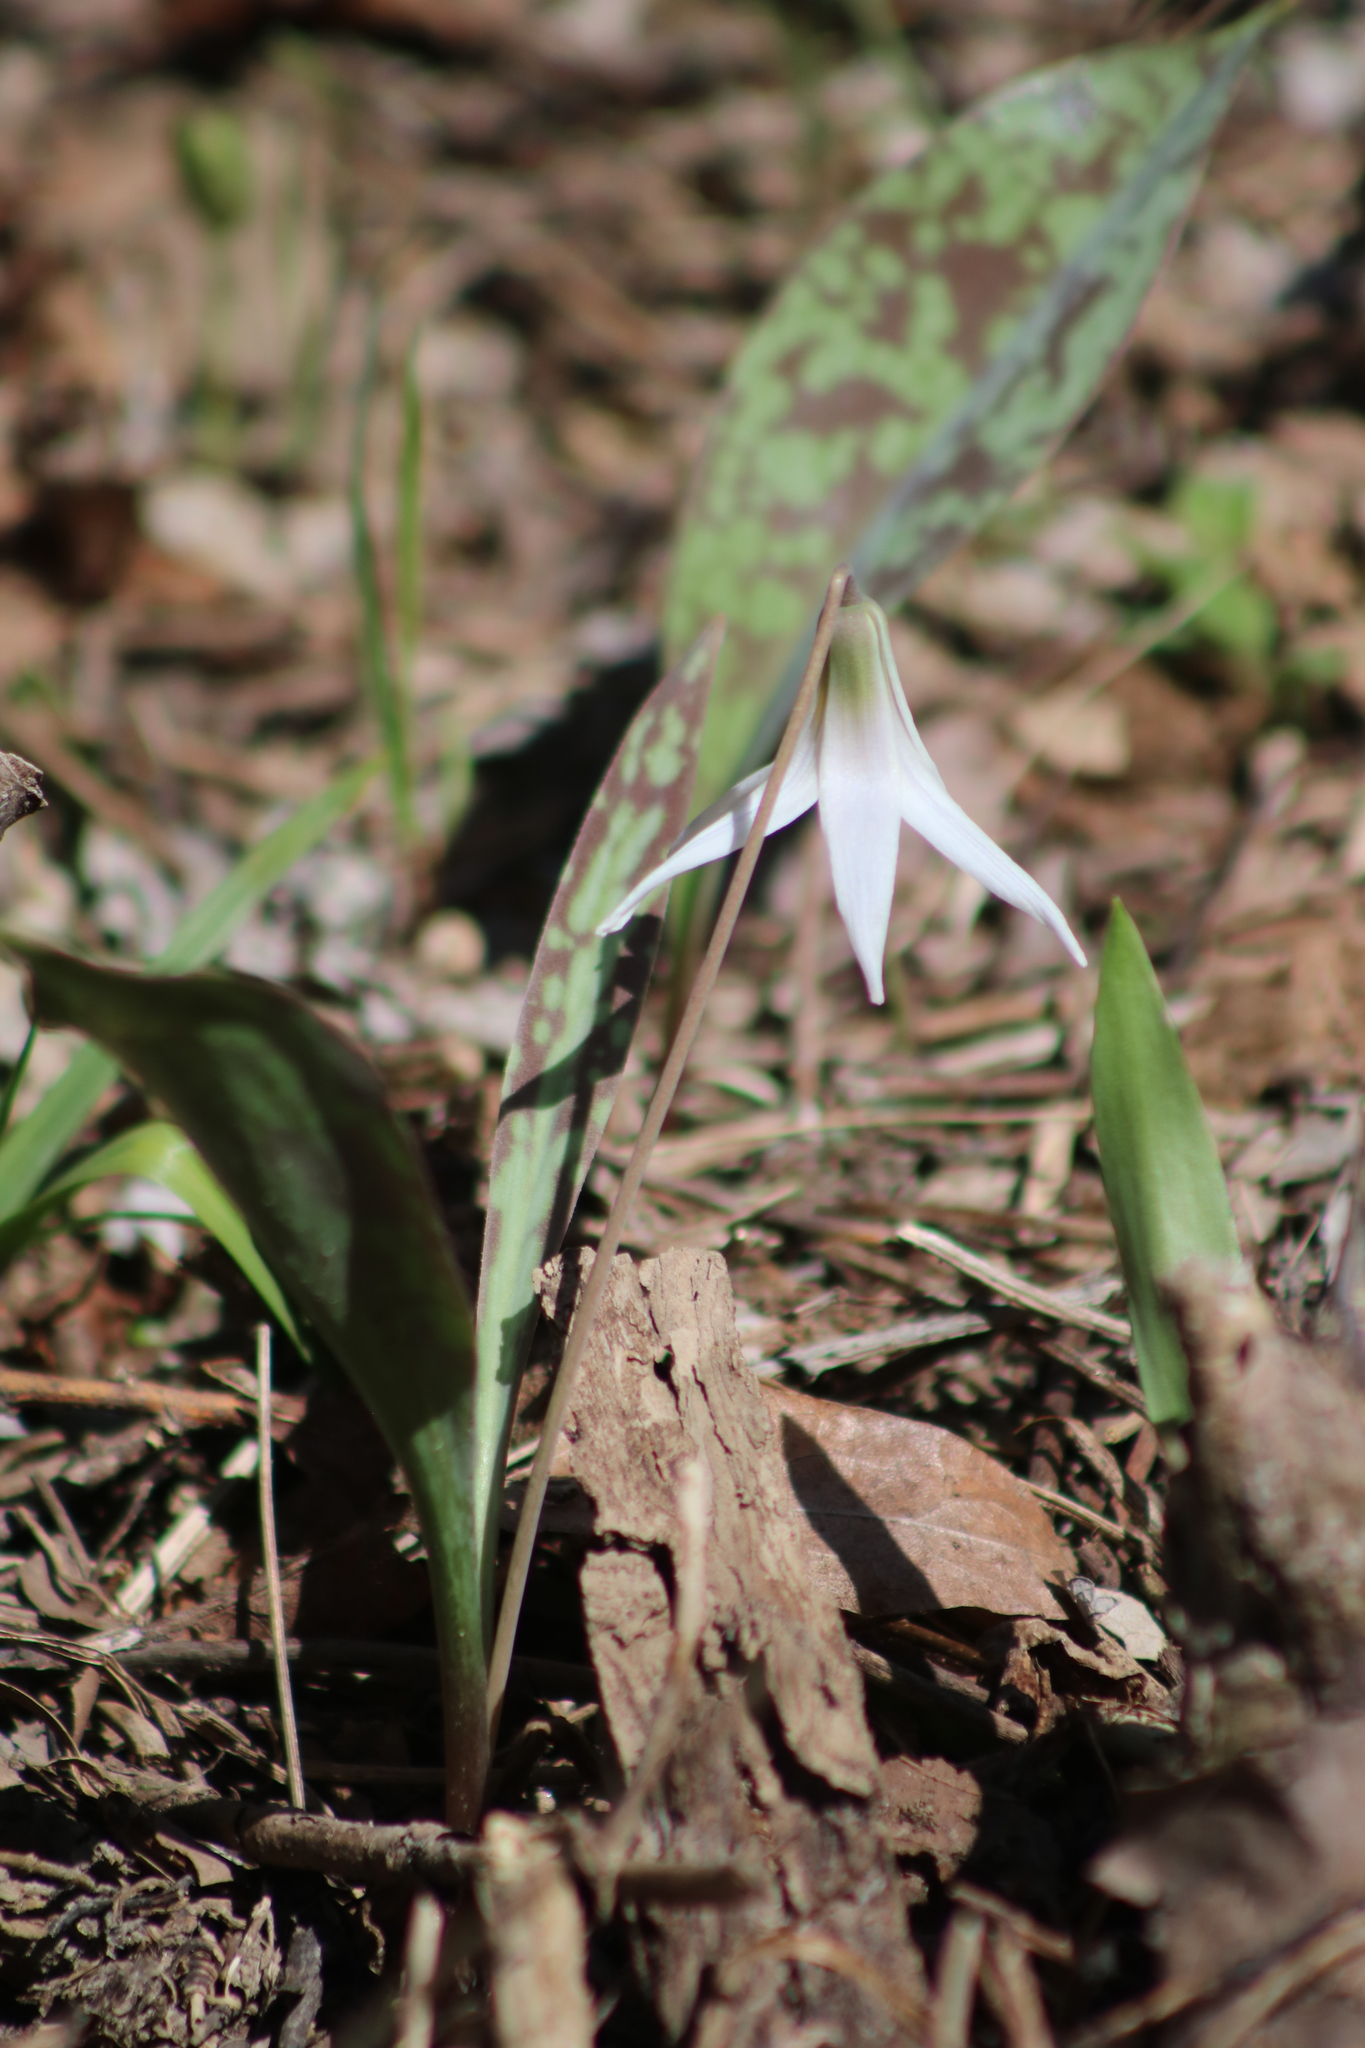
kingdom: Plantae
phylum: Tracheophyta
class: Liliopsida
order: Liliales
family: Liliaceae
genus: Erythronium
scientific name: Erythronium albidum
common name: White trout-lily
